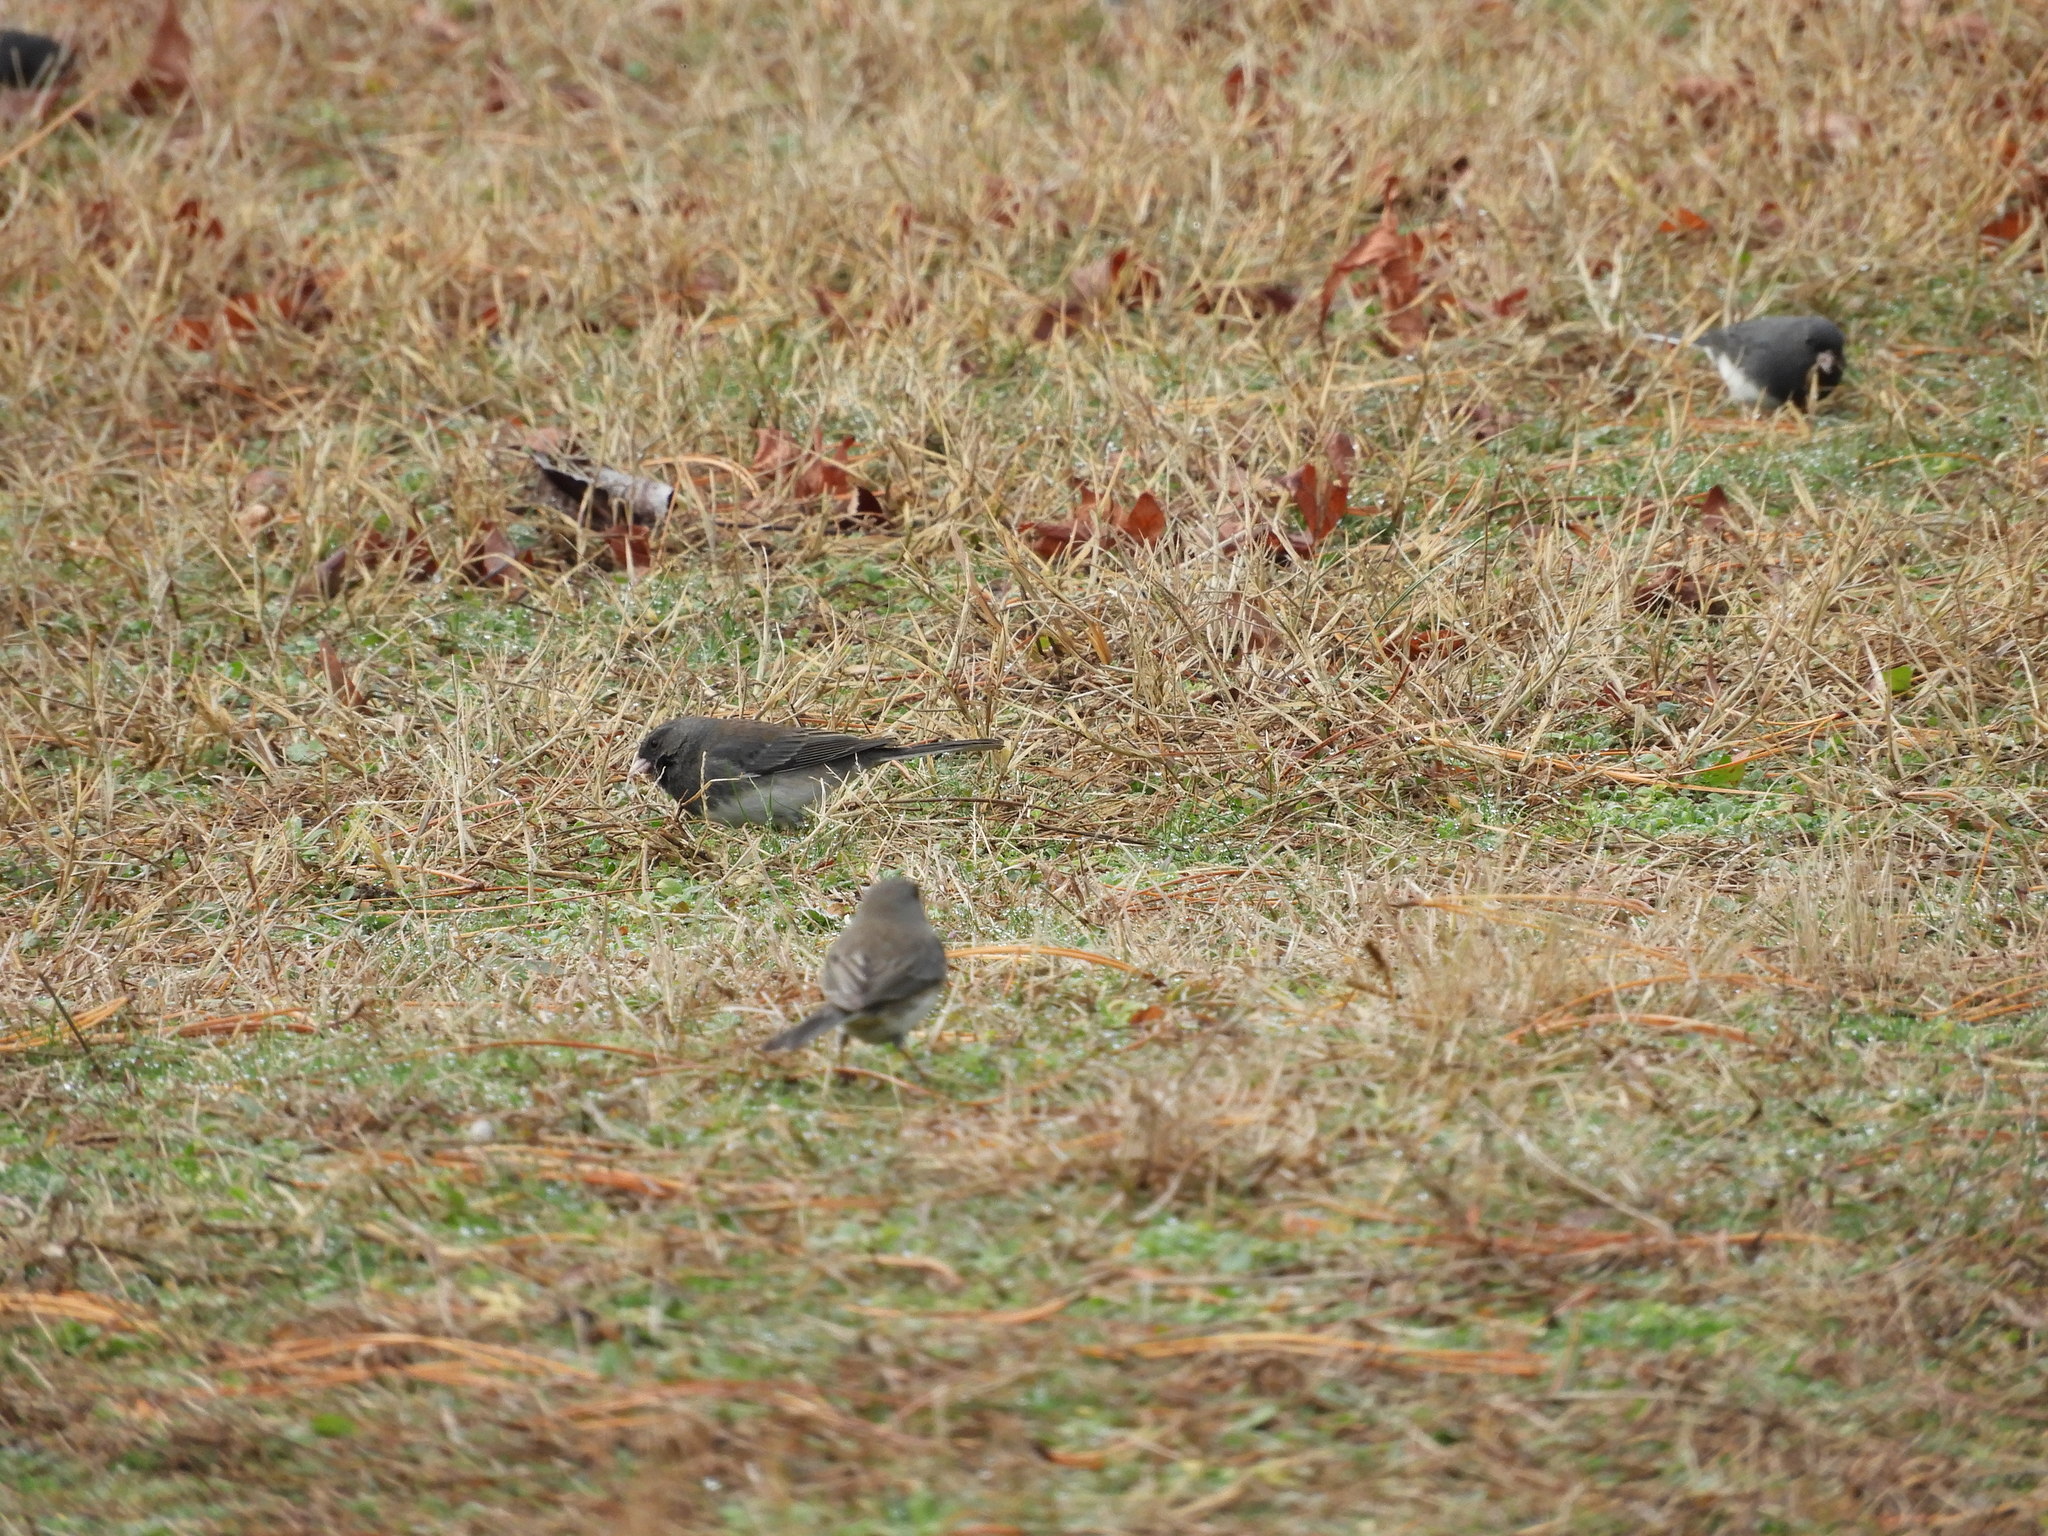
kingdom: Animalia
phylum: Chordata
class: Aves
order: Passeriformes
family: Passerellidae
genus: Junco
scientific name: Junco hyemalis
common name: Dark-eyed junco
